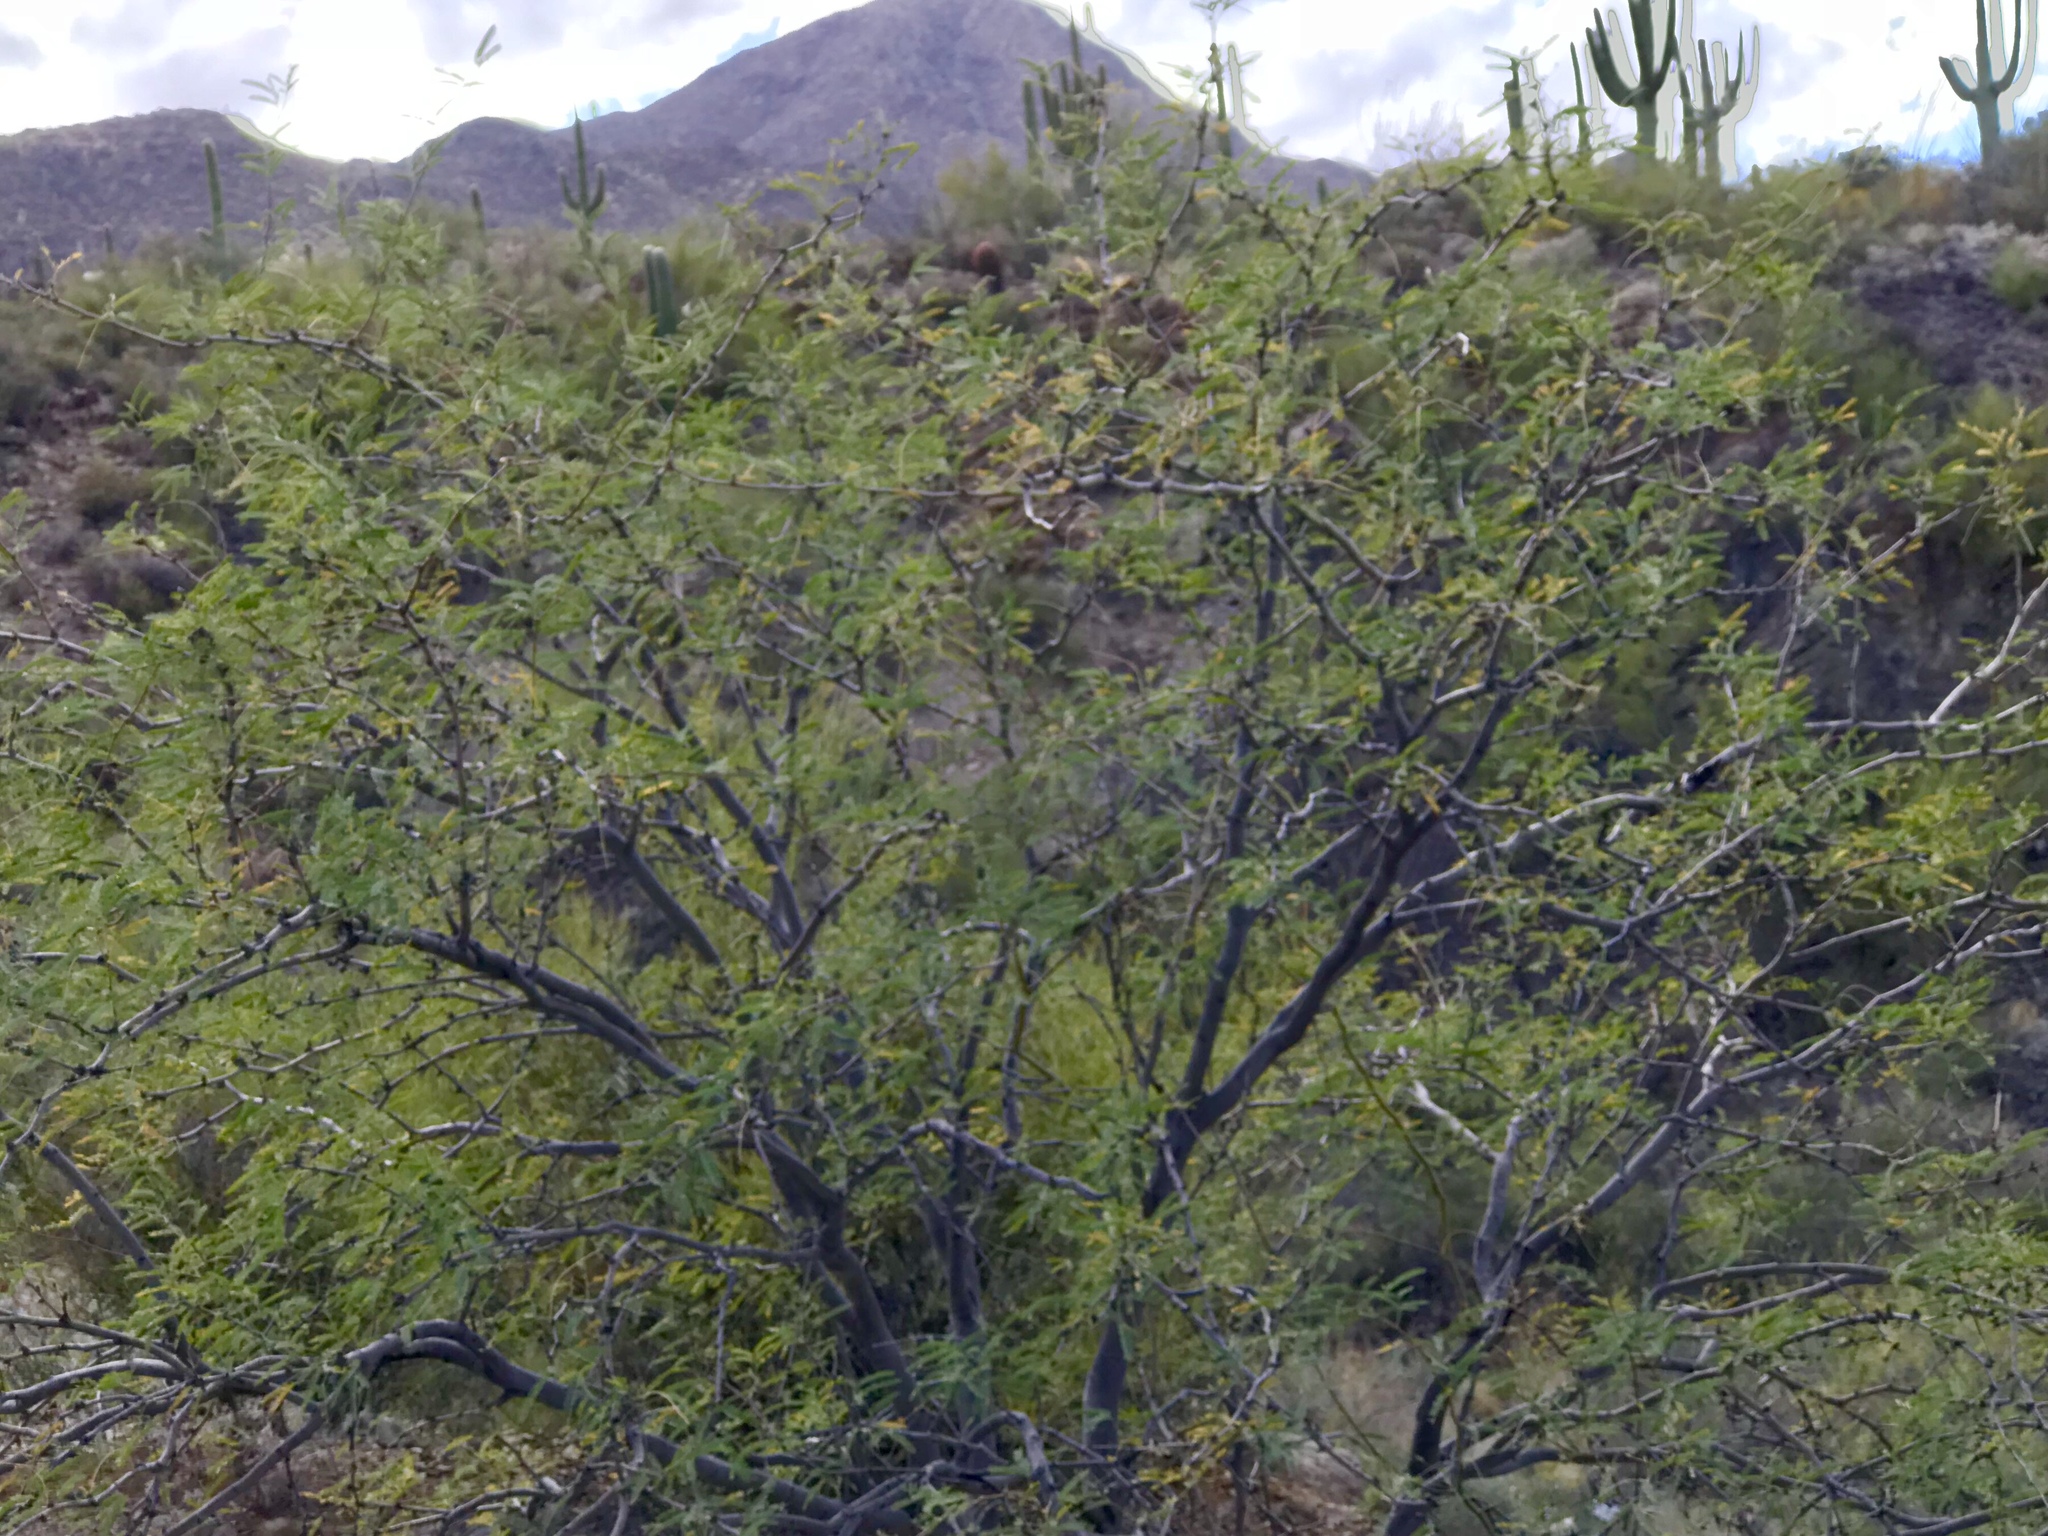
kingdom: Plantae
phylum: Tracheophyta
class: Magnoliopsida
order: Fabales
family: Fabaceae
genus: Prosopis
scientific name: Prosopis velutina
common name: Velvet mesquite
